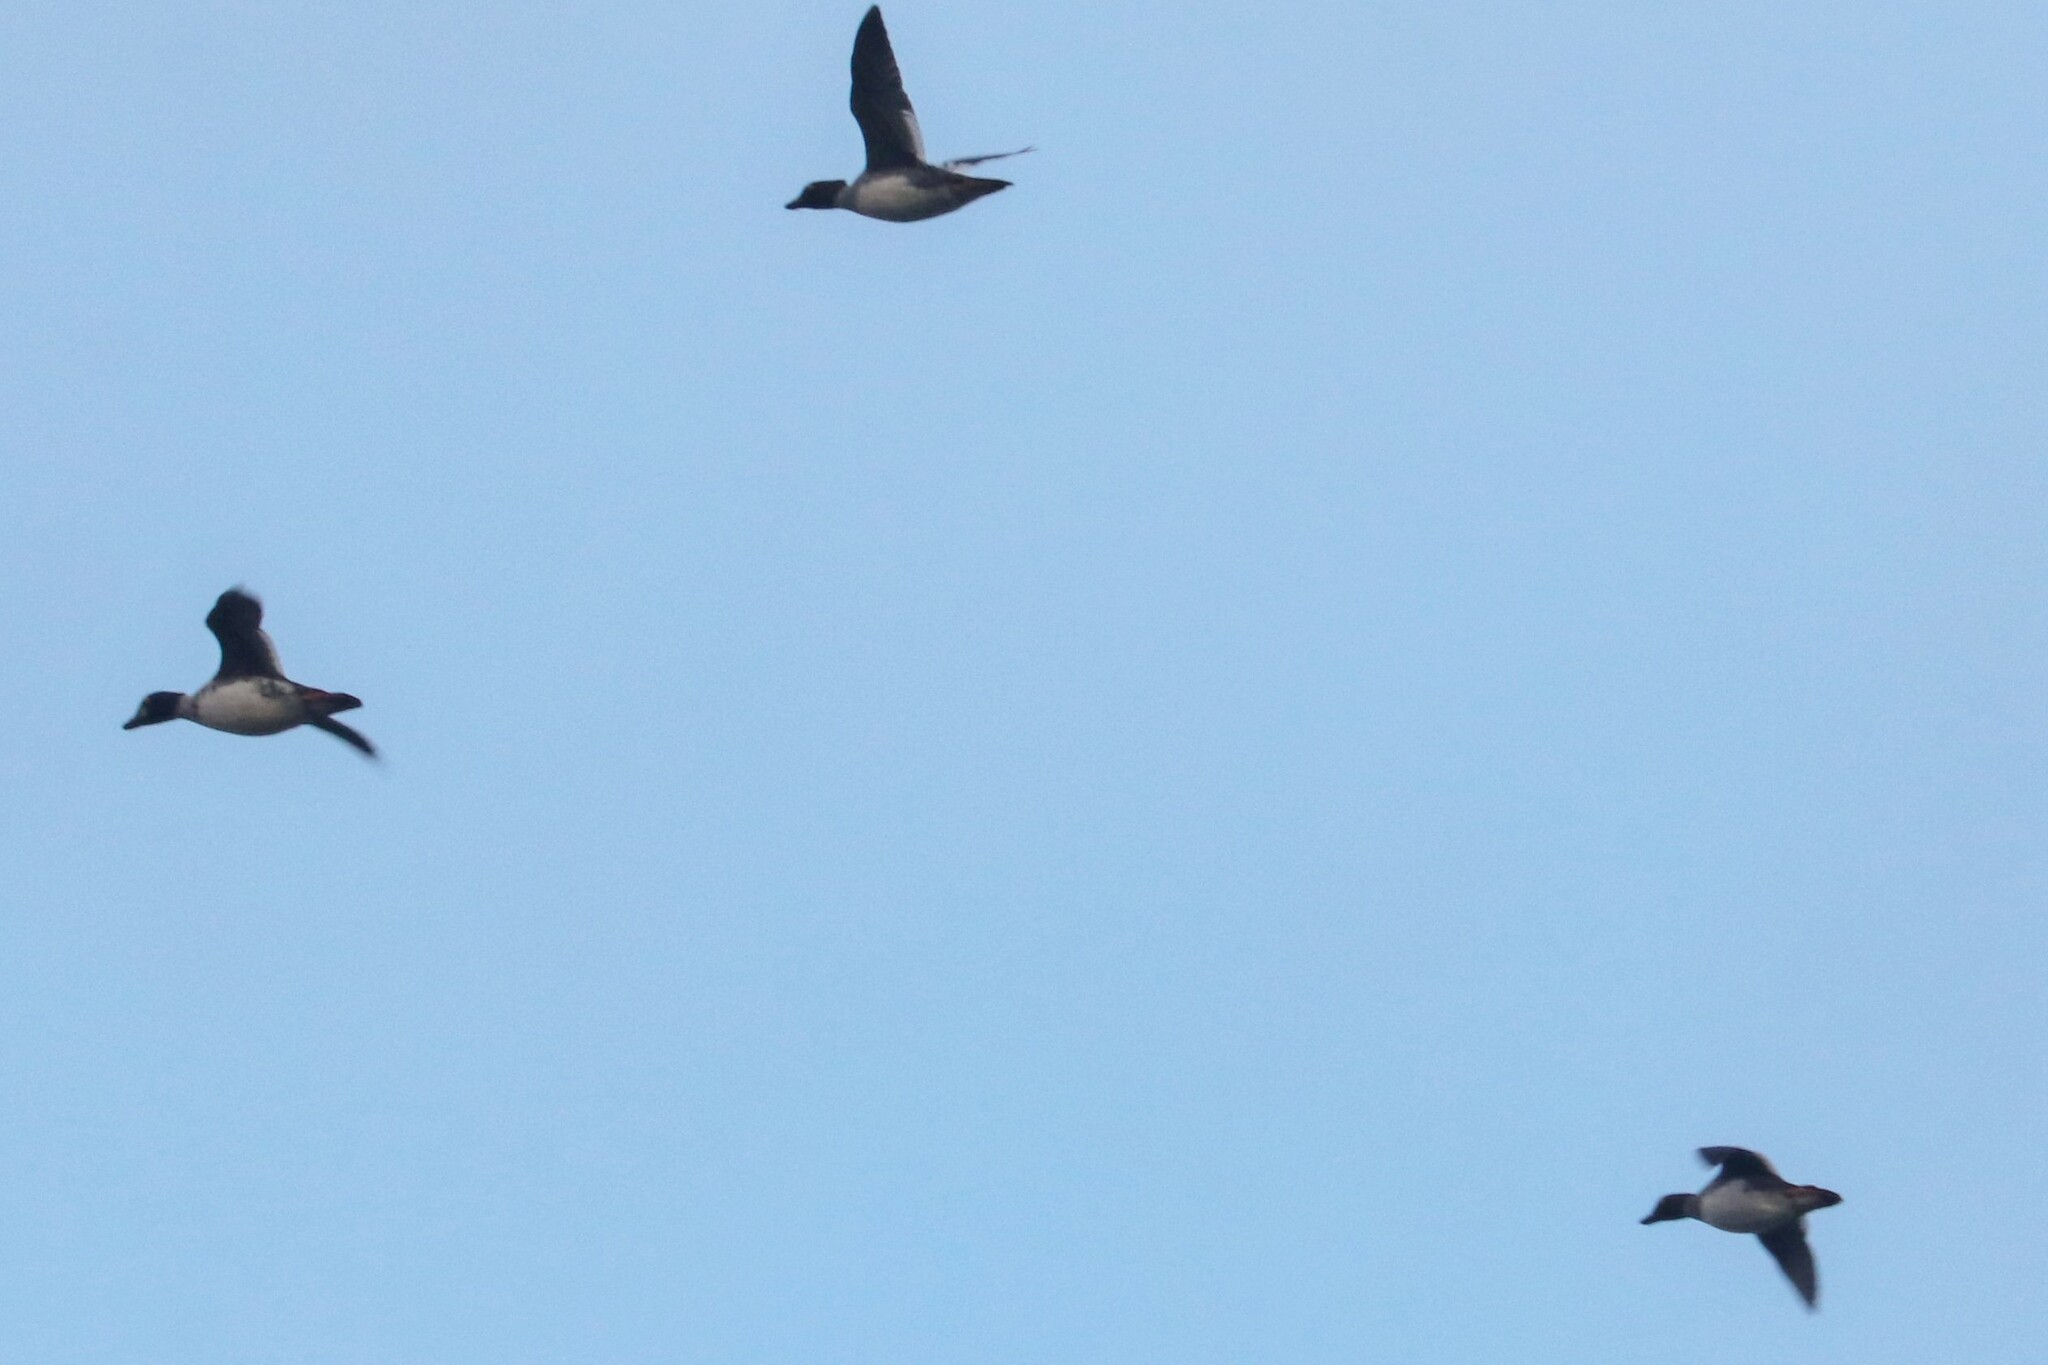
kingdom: Animalia
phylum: Chordata
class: Aves
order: Anseriformes
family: Anatidae
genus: Bucephala
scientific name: Bucephala clangula
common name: Common goldeneye
